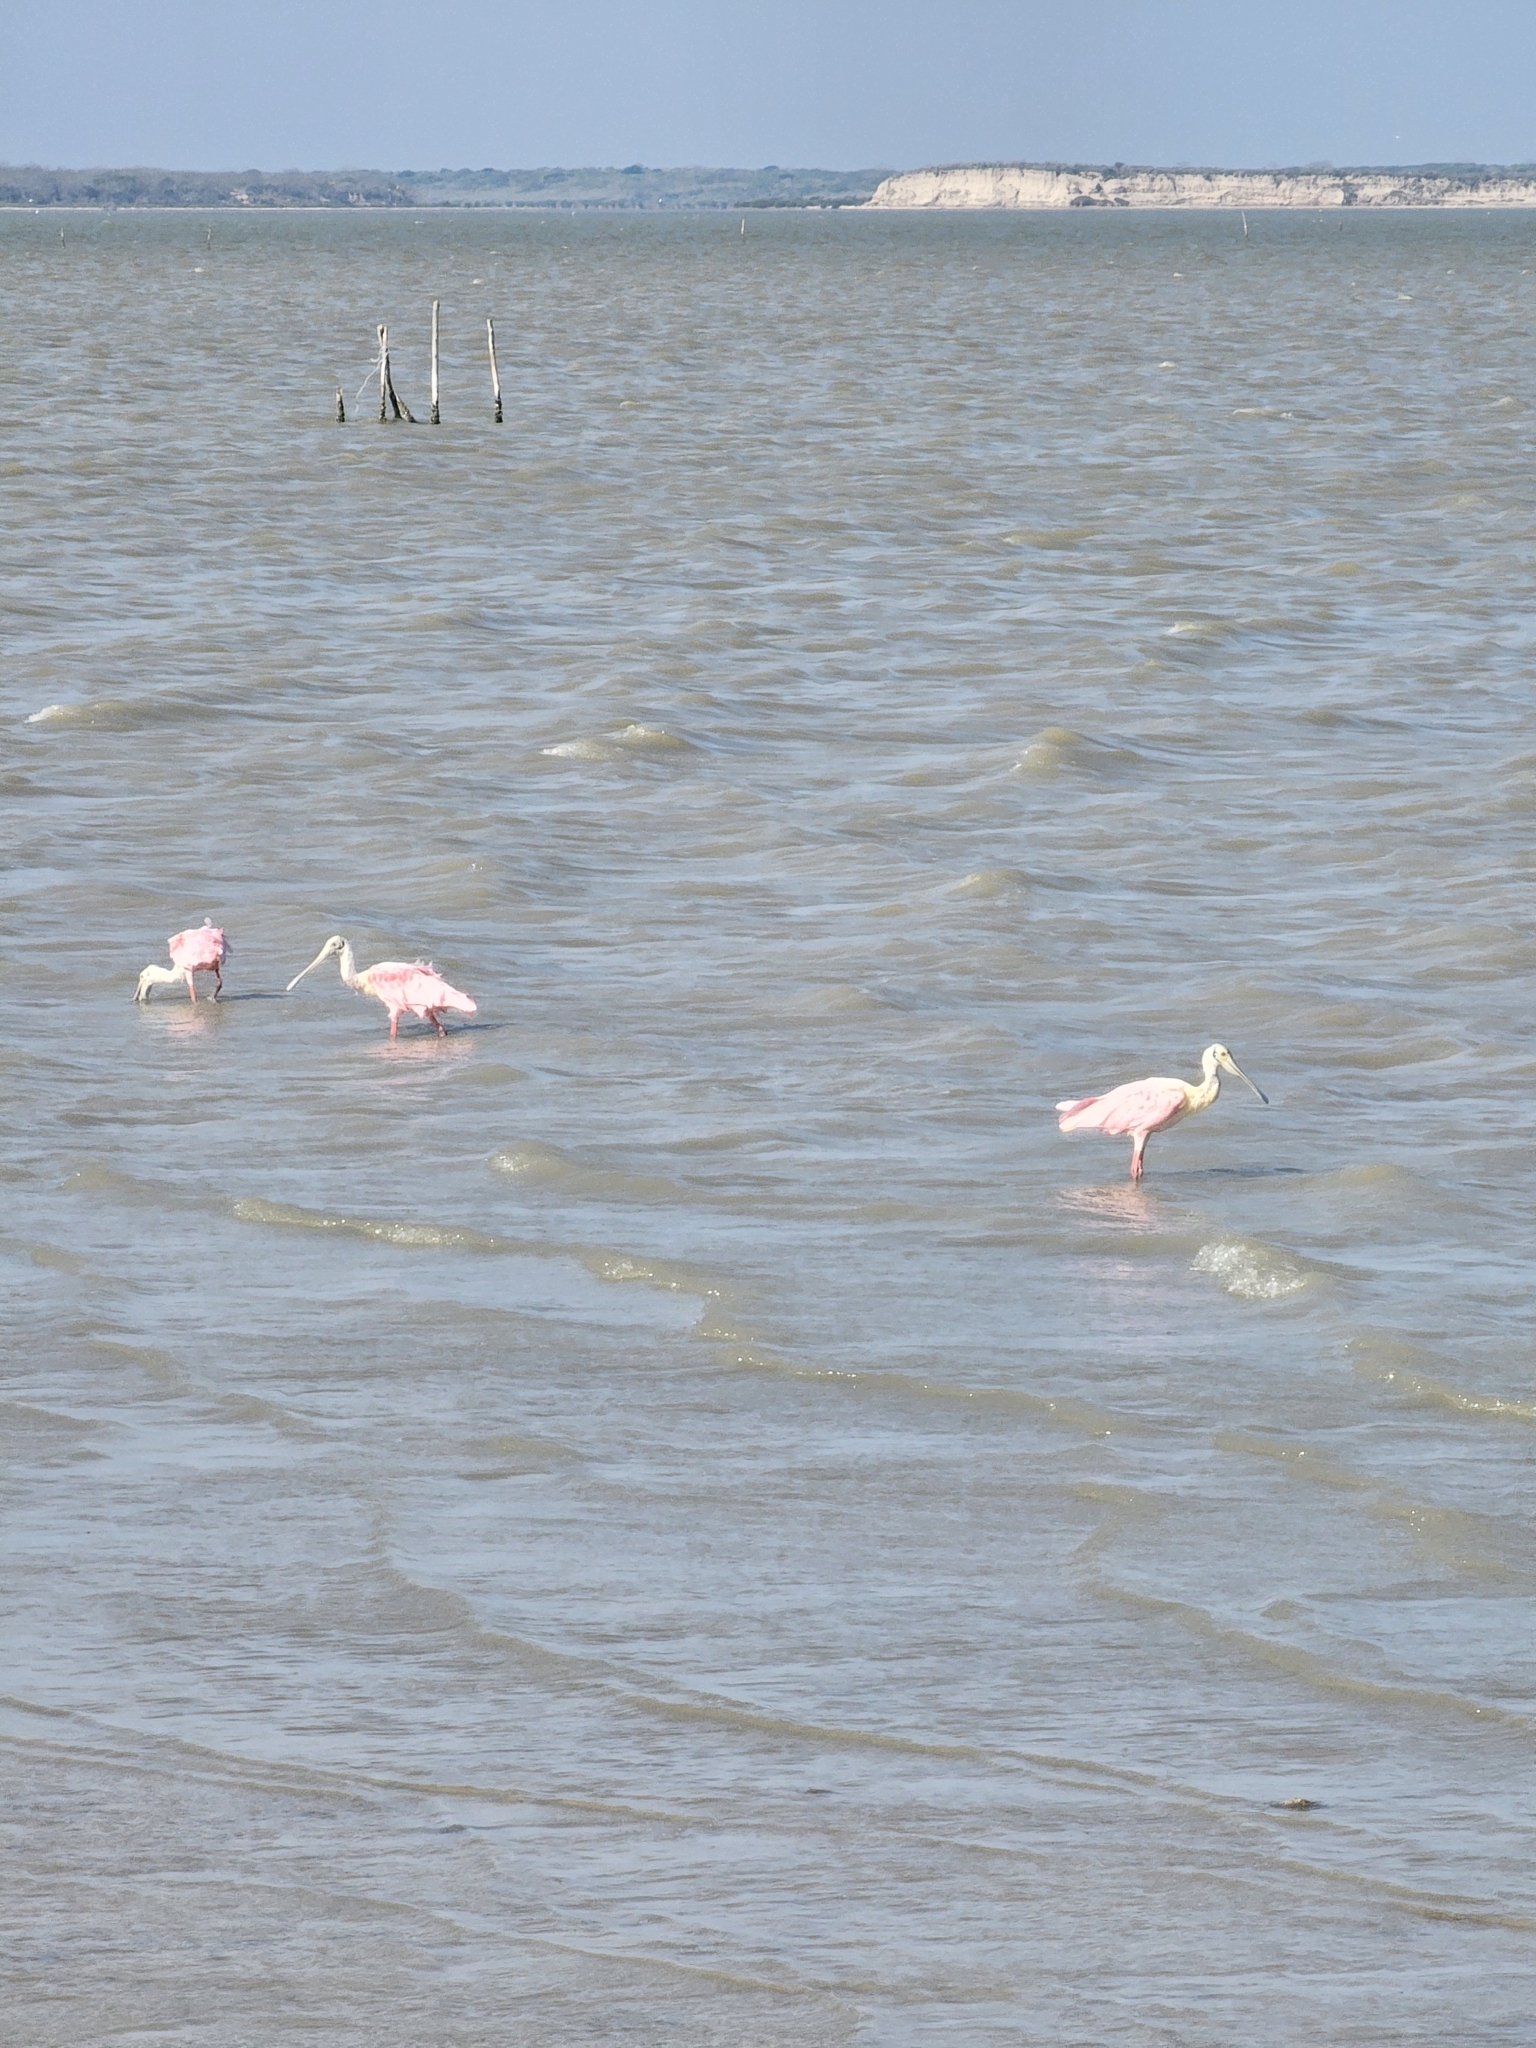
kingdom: Animalia
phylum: Chordata
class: Aves
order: Pelecaniformes
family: Threskiornithidae
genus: Platalea
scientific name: Platalea ajaja
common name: Roseate spoonbill
